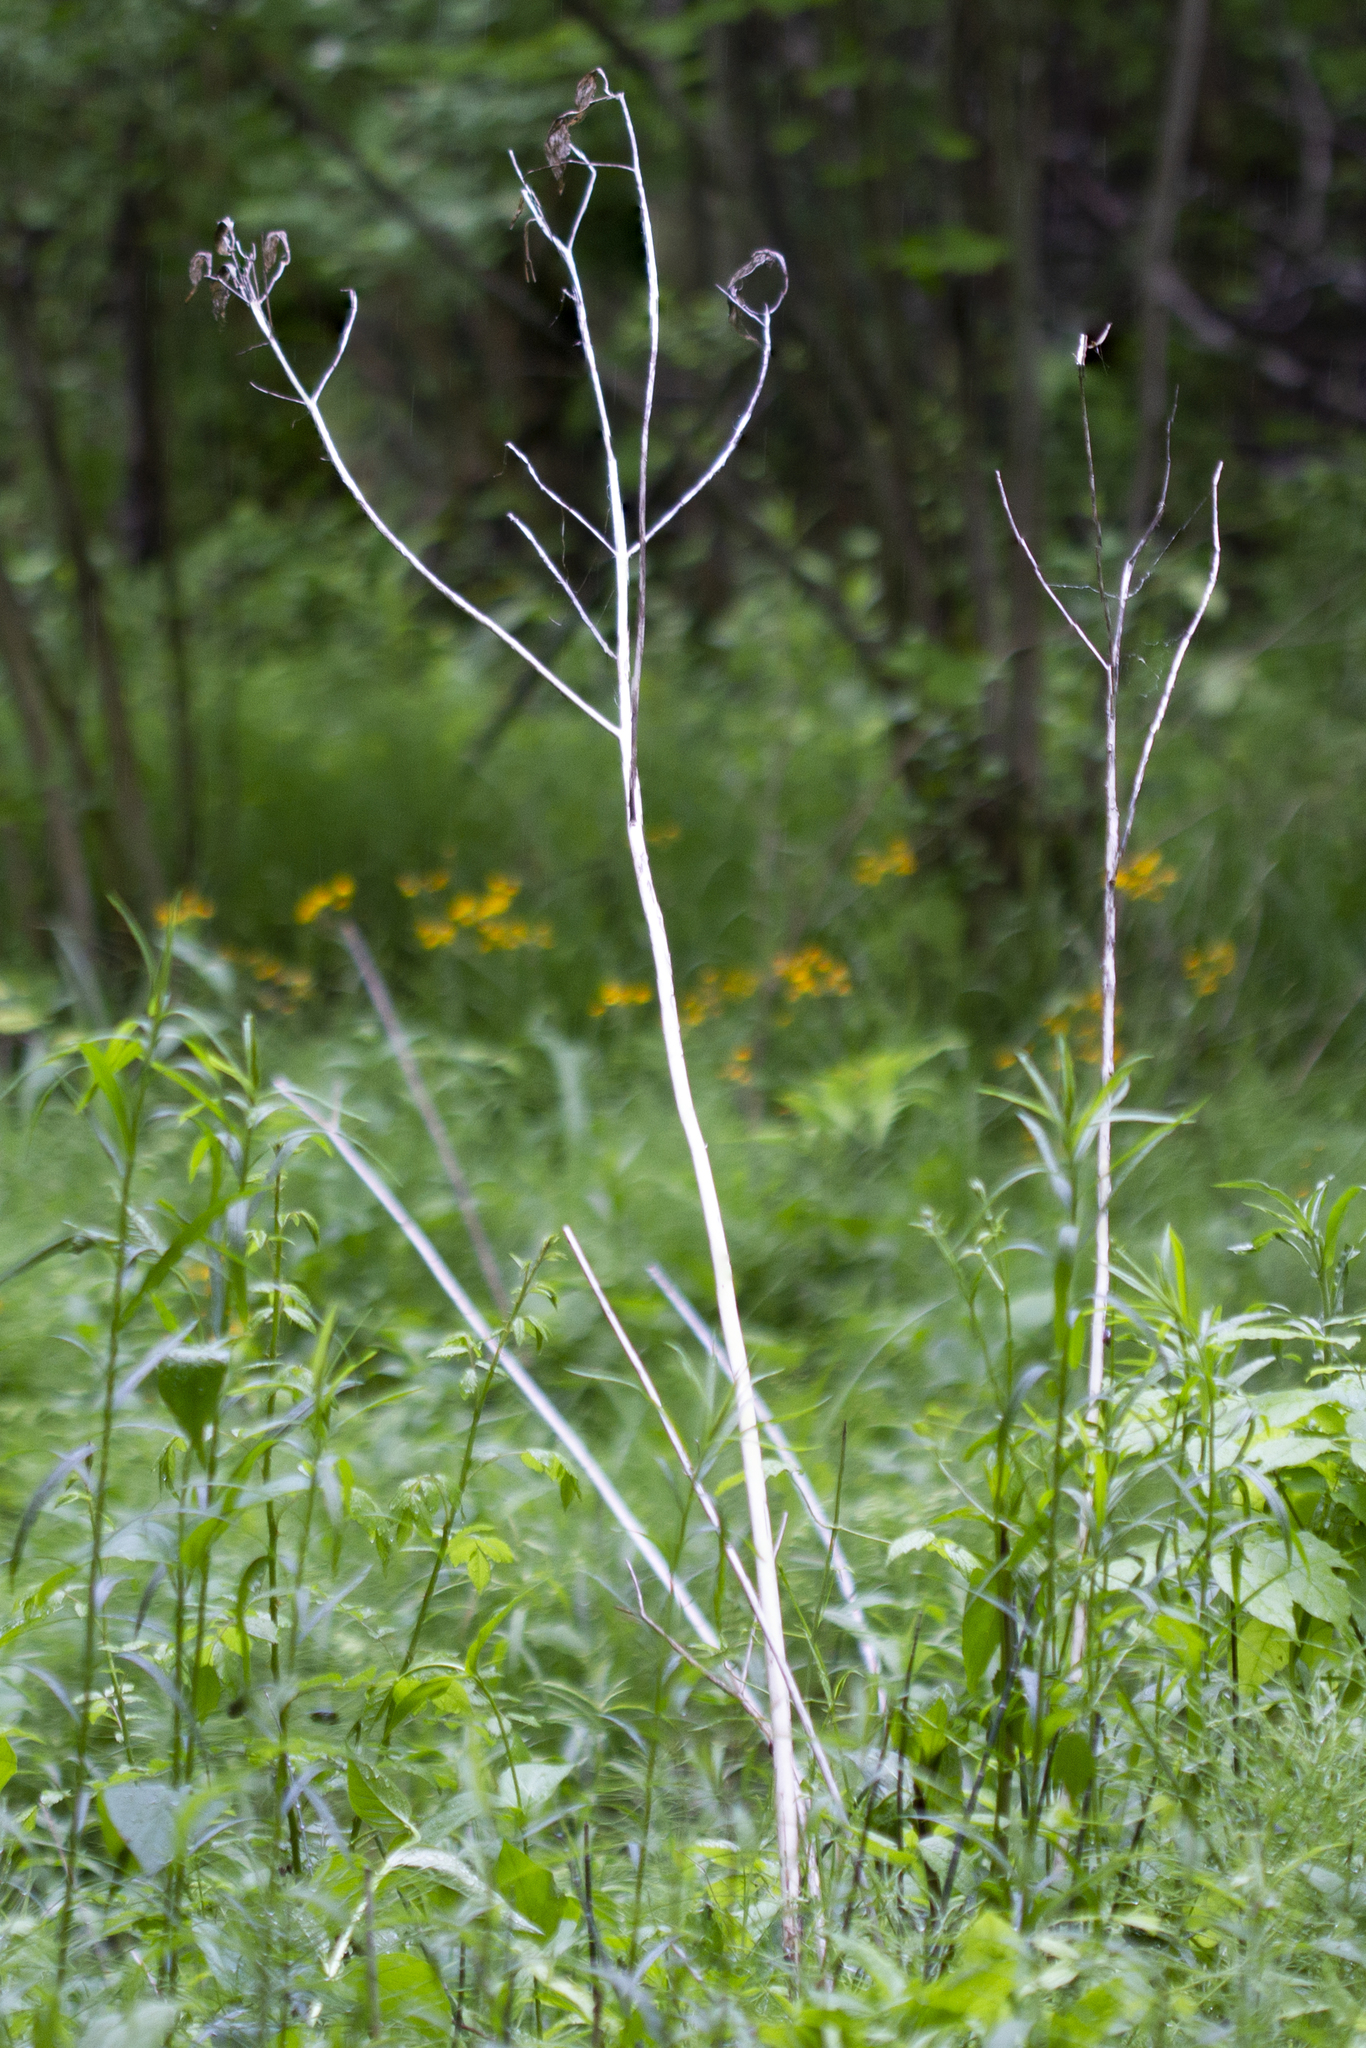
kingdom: Plantae
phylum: Tracheophyta
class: Magnoliopsida
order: Gentianales
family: Apocynaceae
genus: Asclepias
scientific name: Asclepias incarnata
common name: Swamp milkweed
